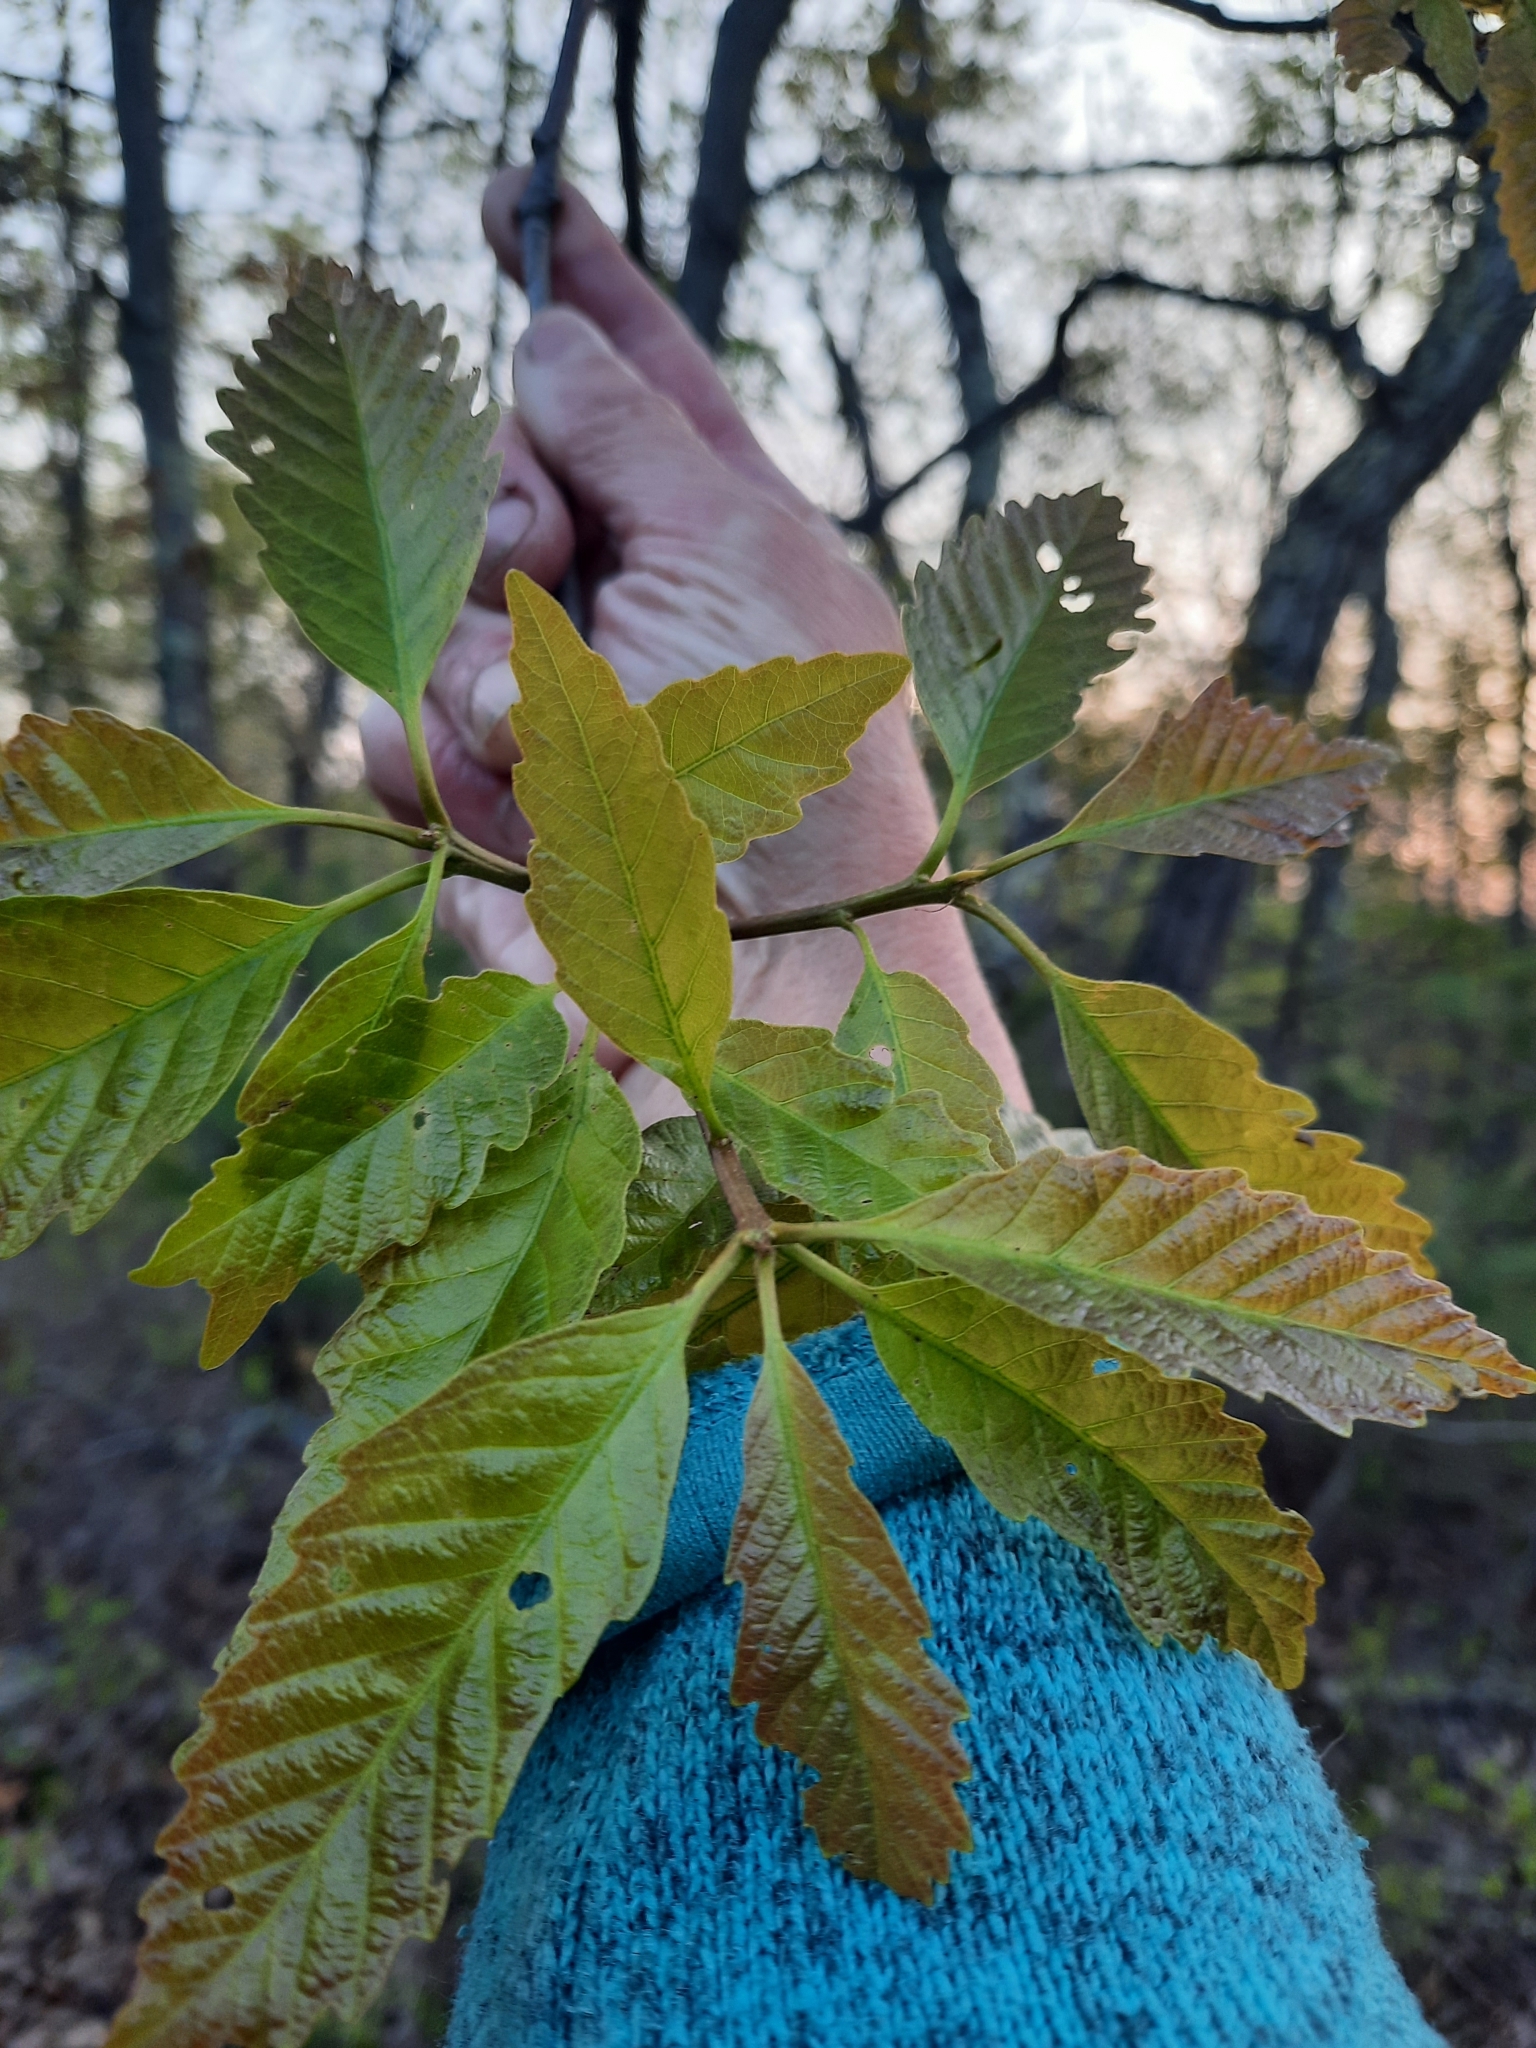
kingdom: Plantae
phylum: Tracheophyta
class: Magnoliopsida
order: Fagales
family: Fagaceae
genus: Quercus
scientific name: Quercus montana
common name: Chestnut oak
